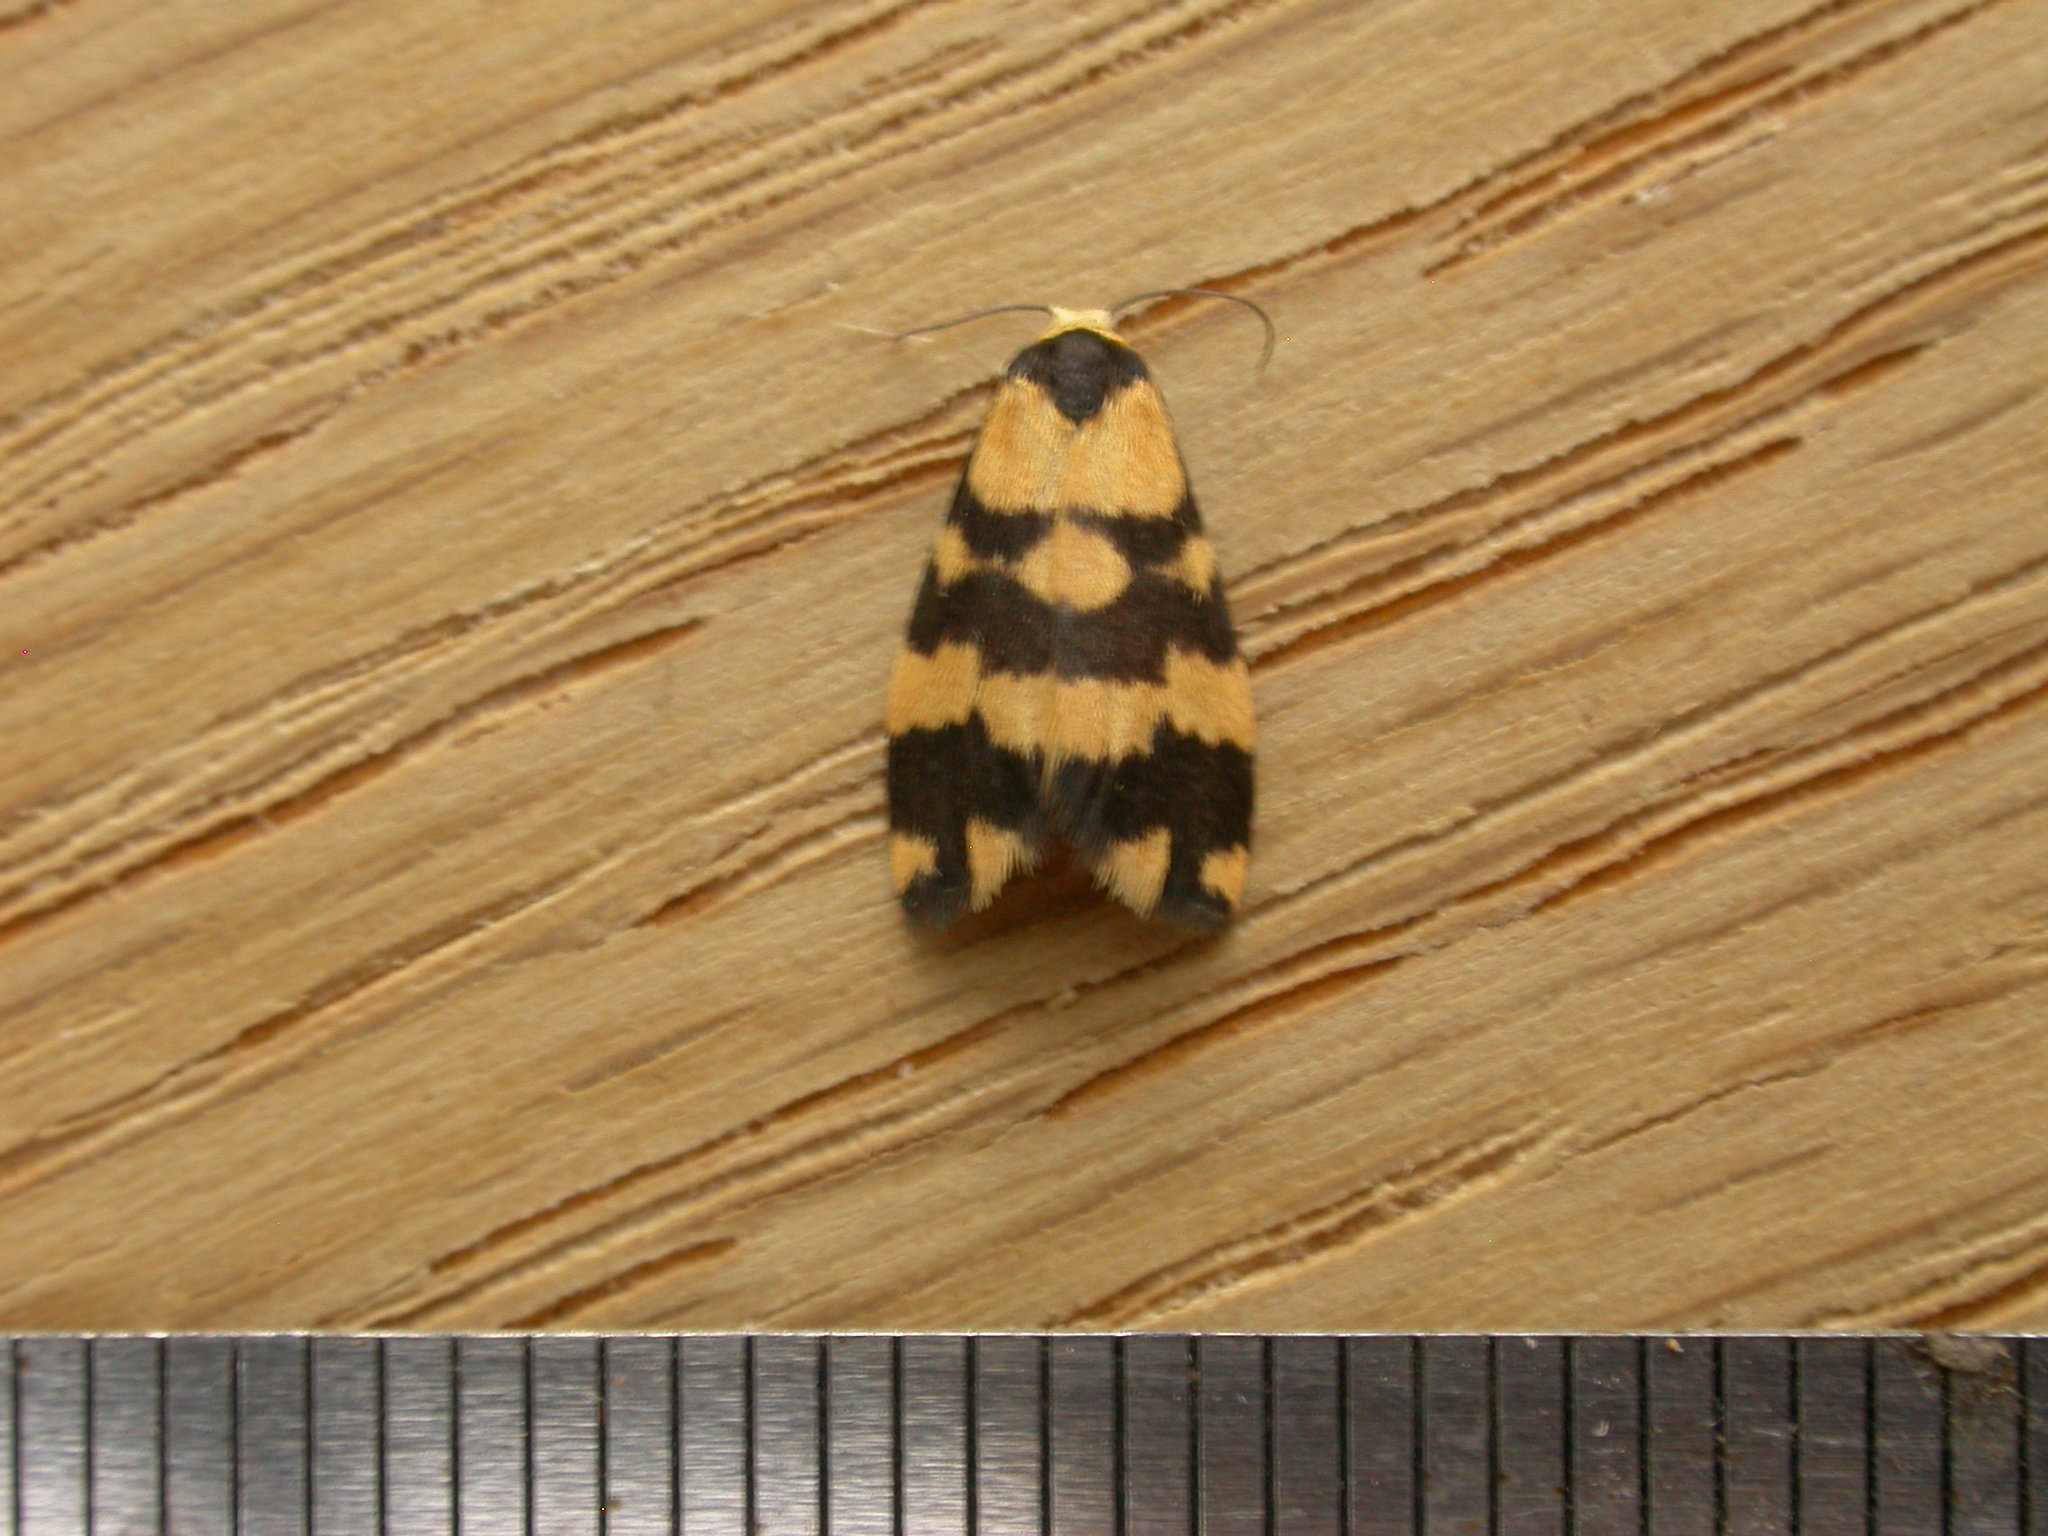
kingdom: Animalia
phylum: Arthropoda
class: Insecta
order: Lepidoptera
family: Erebidae
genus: Thallarcha
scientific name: Thallarcha partita
